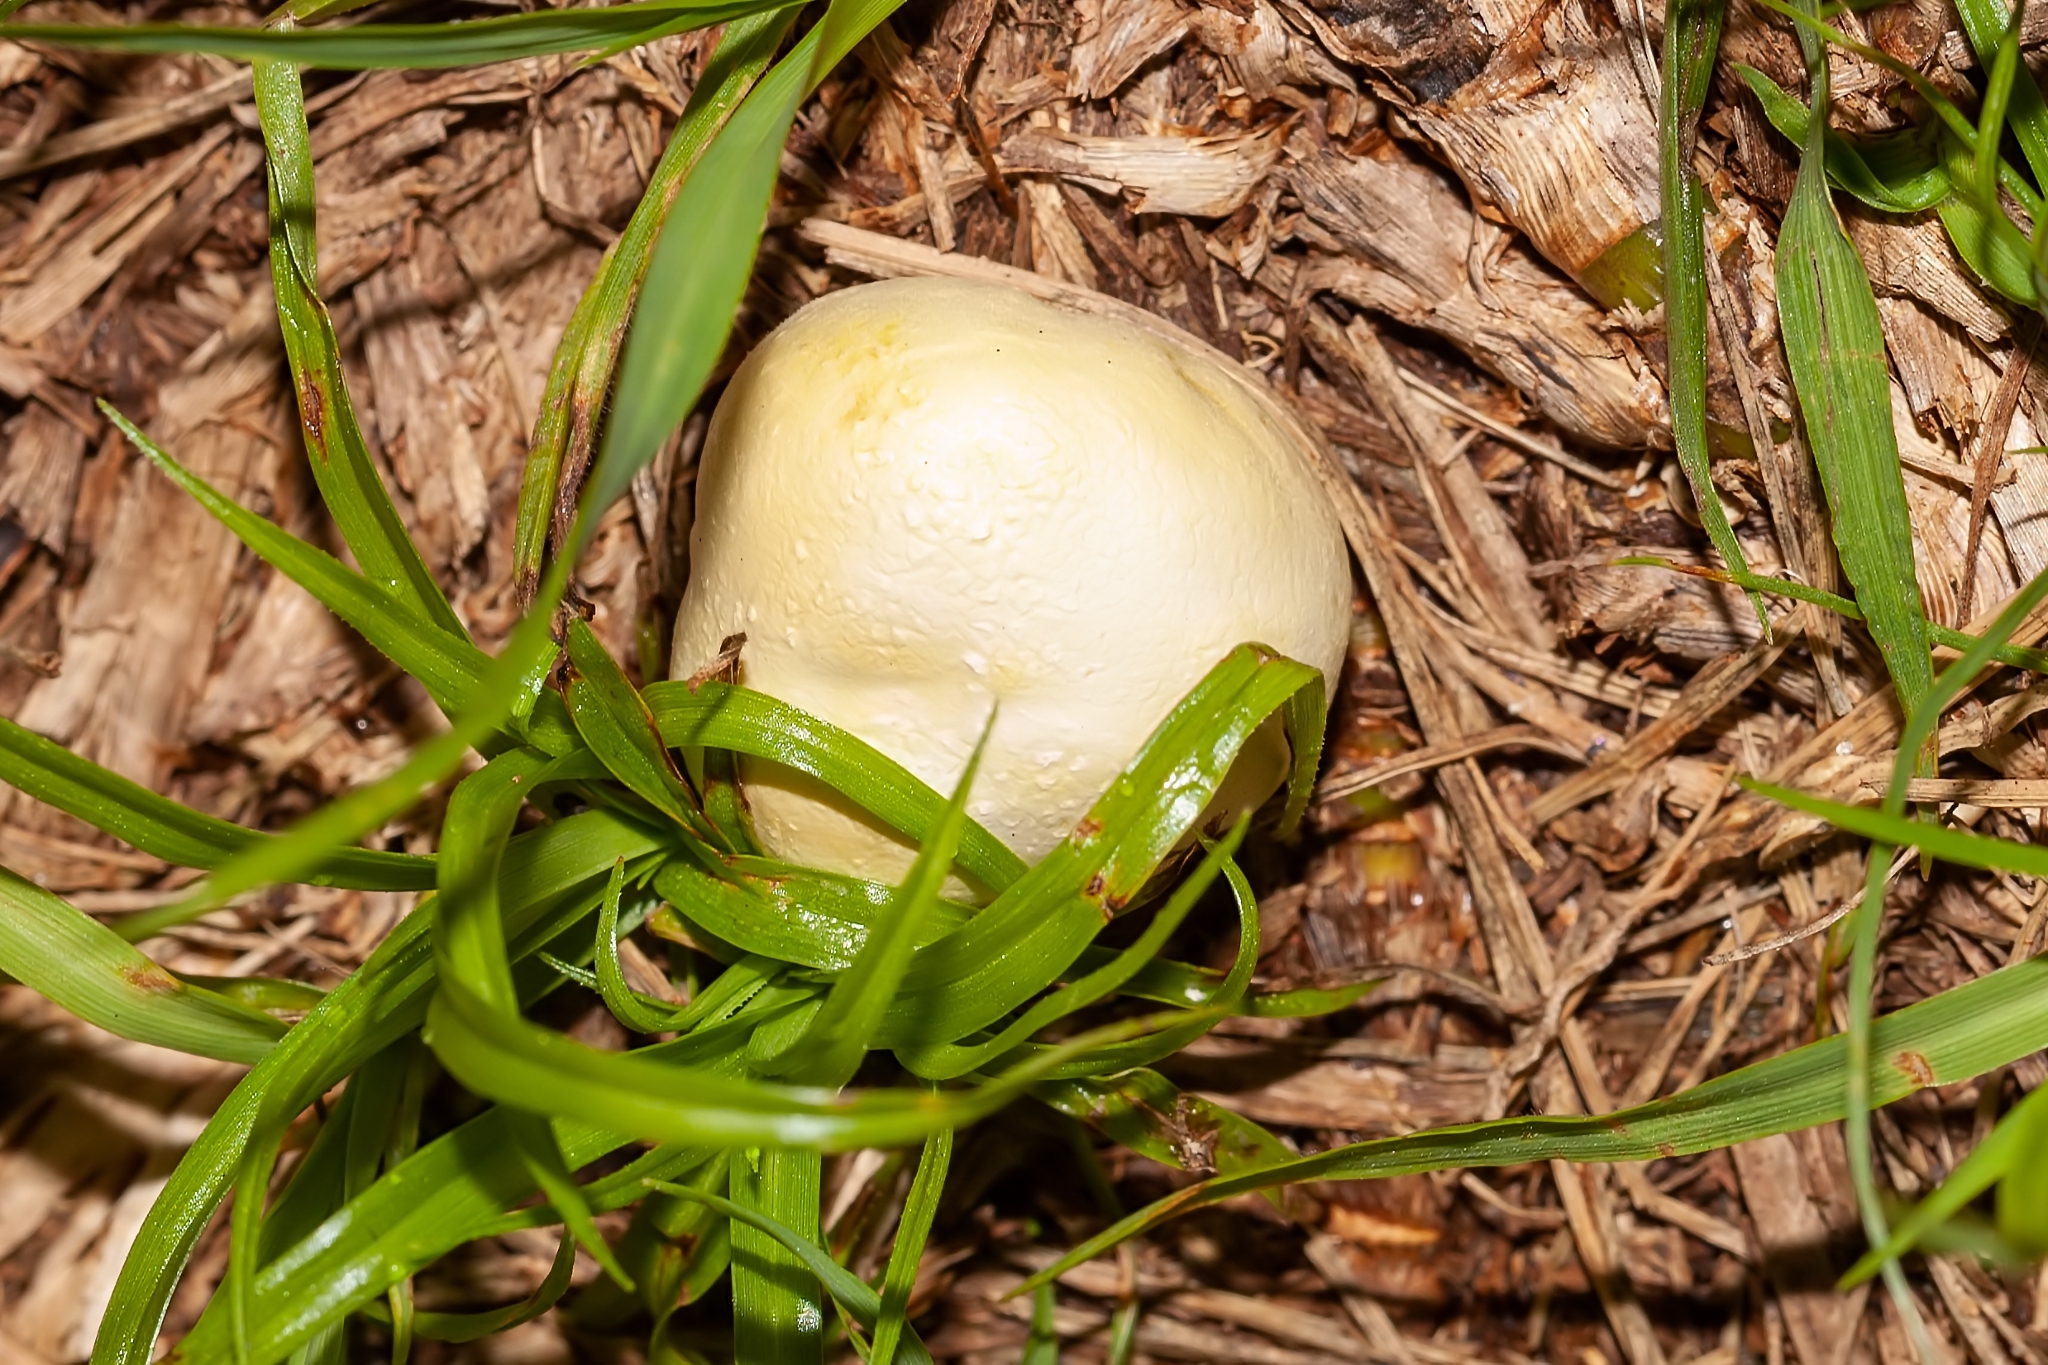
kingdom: Fungi
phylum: Basidiomycota
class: Agaricomycetes
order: Agaricales
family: Lycoperdaceae
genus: Lycoperdon
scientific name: Lycoperdon flavotinctum
